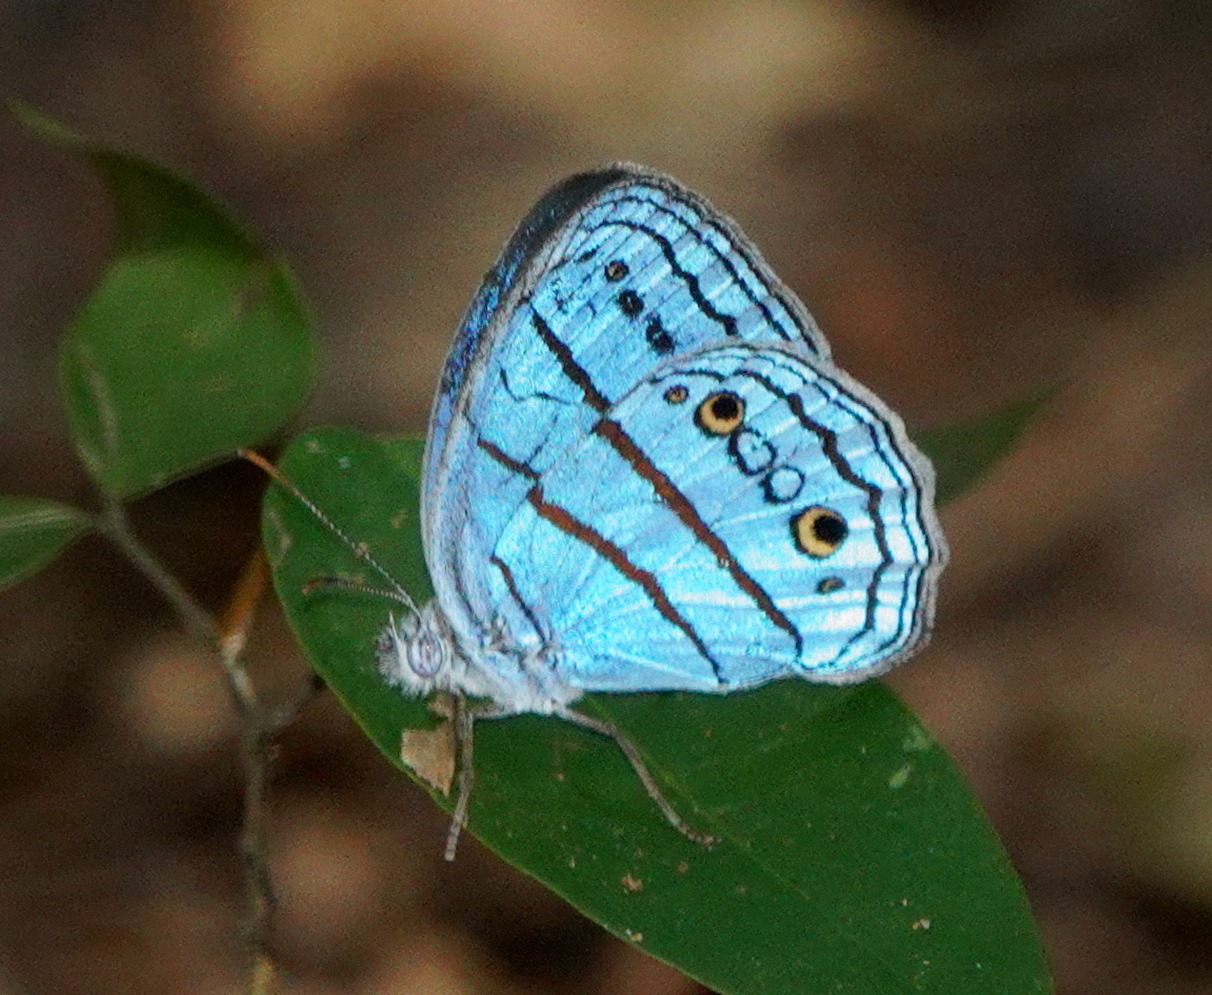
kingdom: Animalia
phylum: Arthropoda
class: Insecta
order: Lepidoptera
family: Nymphalidae
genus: Caeruleuptychia
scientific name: Caeruleuptychia pilata
